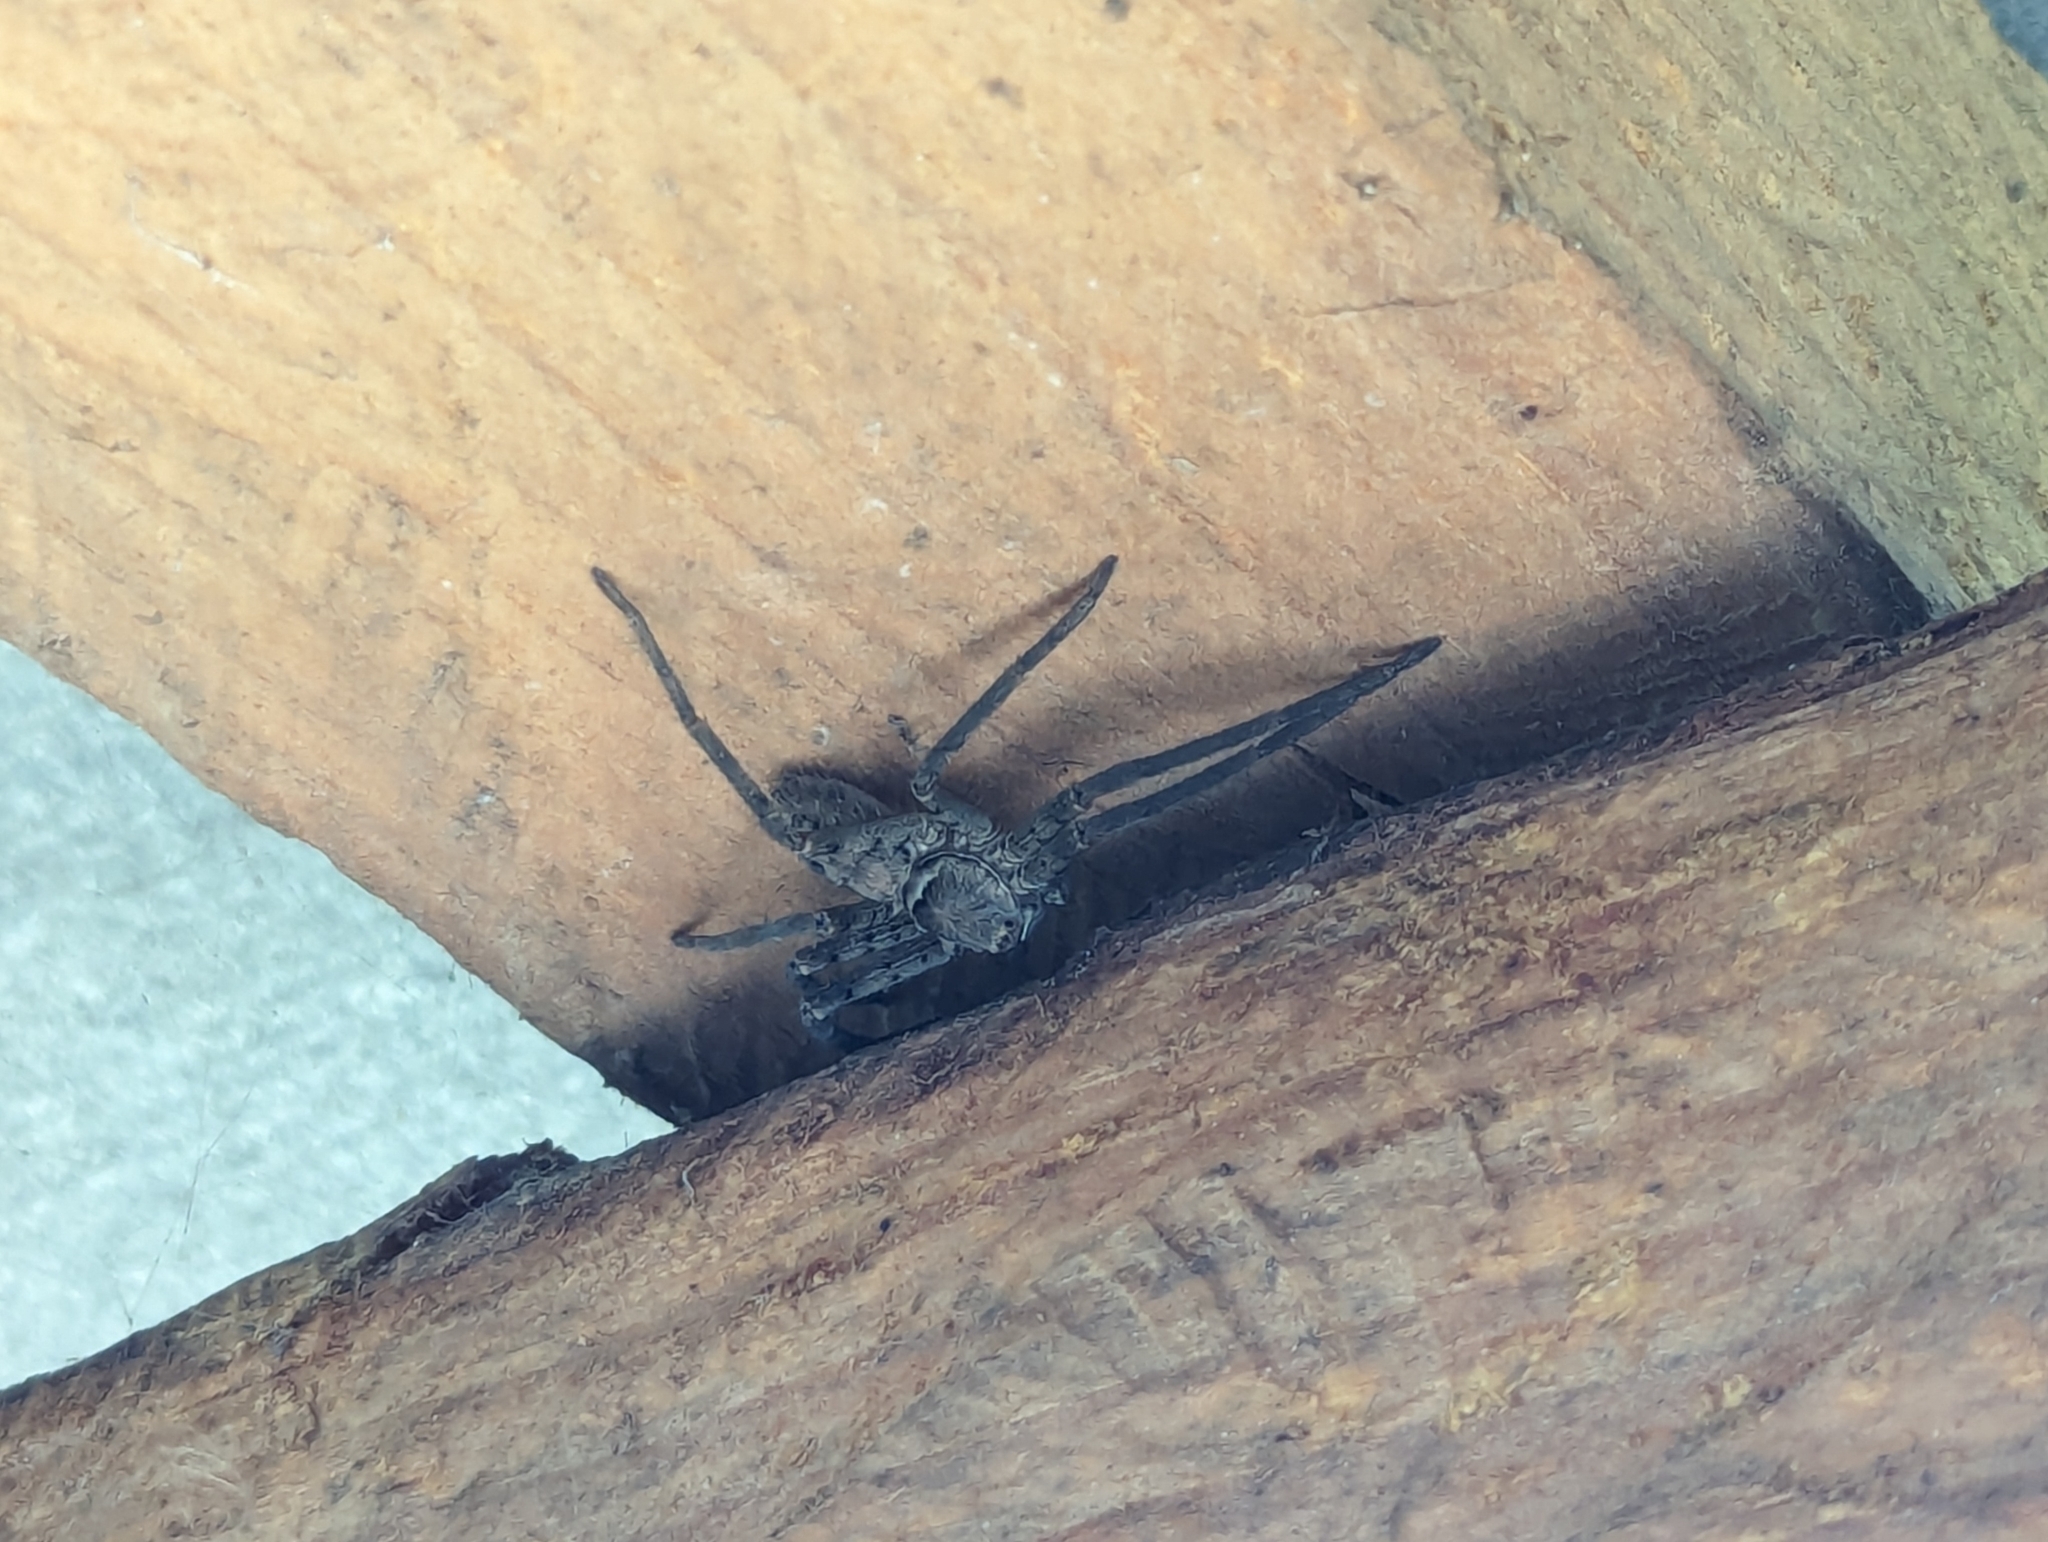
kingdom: Animalia
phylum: Arthropoda
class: Arachnida
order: Araneae
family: Sparassidae
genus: Heteropoda
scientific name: Heteropoda venatoria
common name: Huntsman spider
